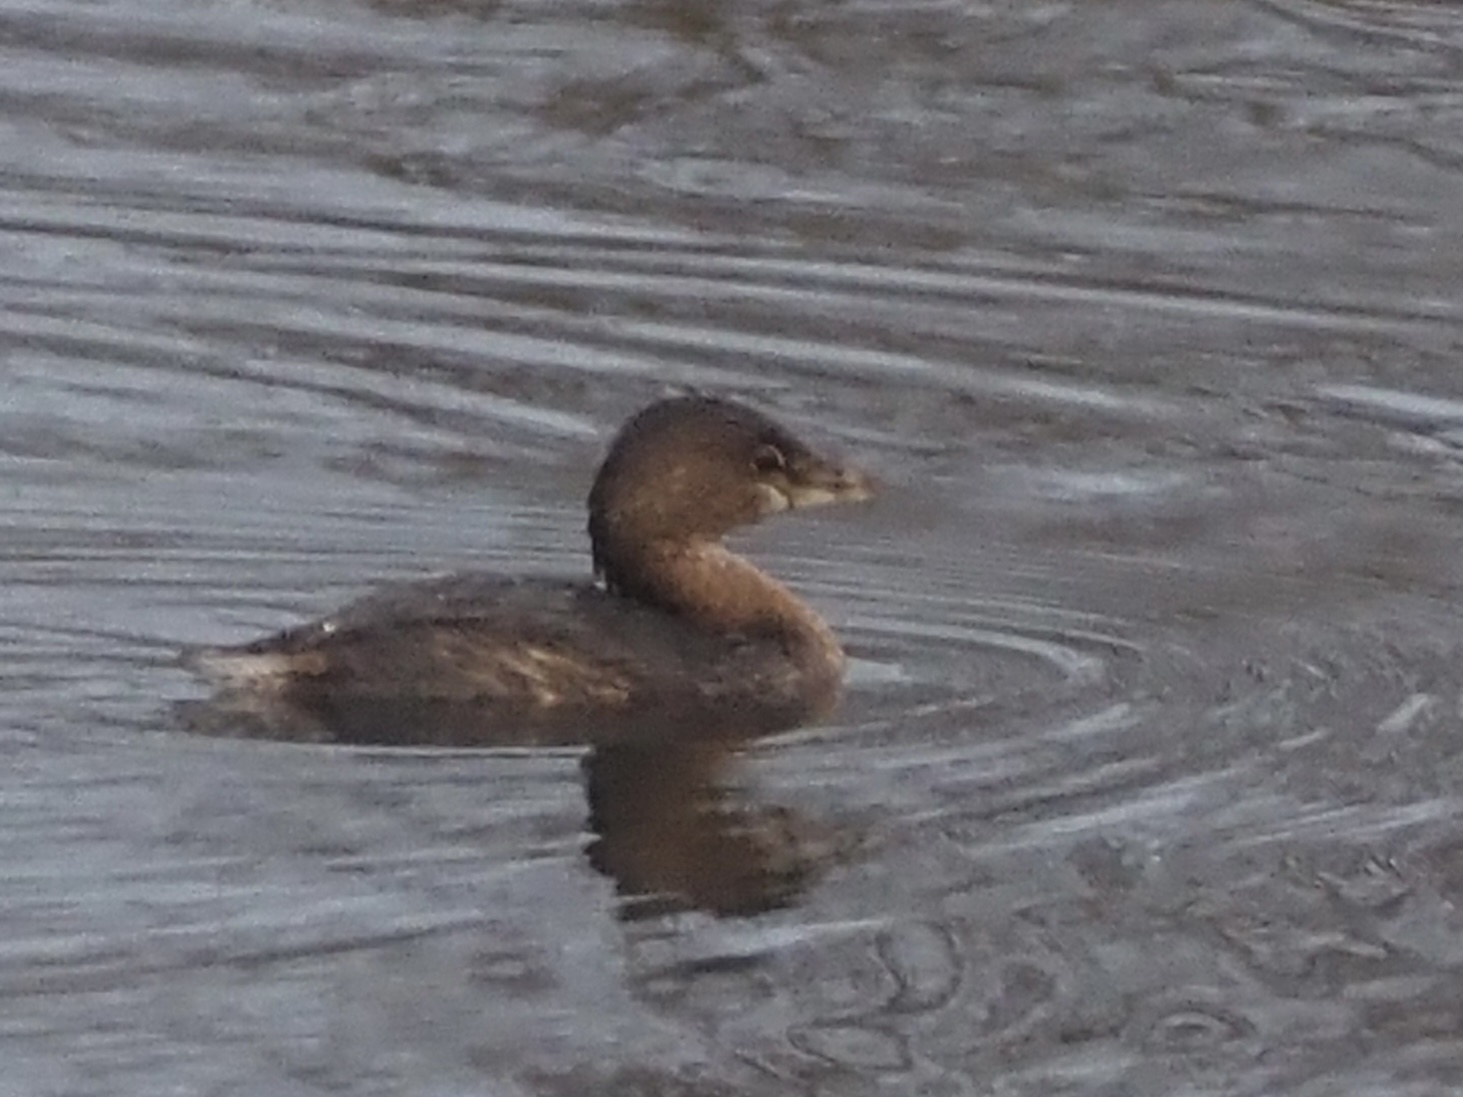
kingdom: Animalia
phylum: Chordata
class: Aves
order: Podicipediformes
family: Podicipedidae
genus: Podilymbus
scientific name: Podilymbus podiceps
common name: Pied-billed grebe
